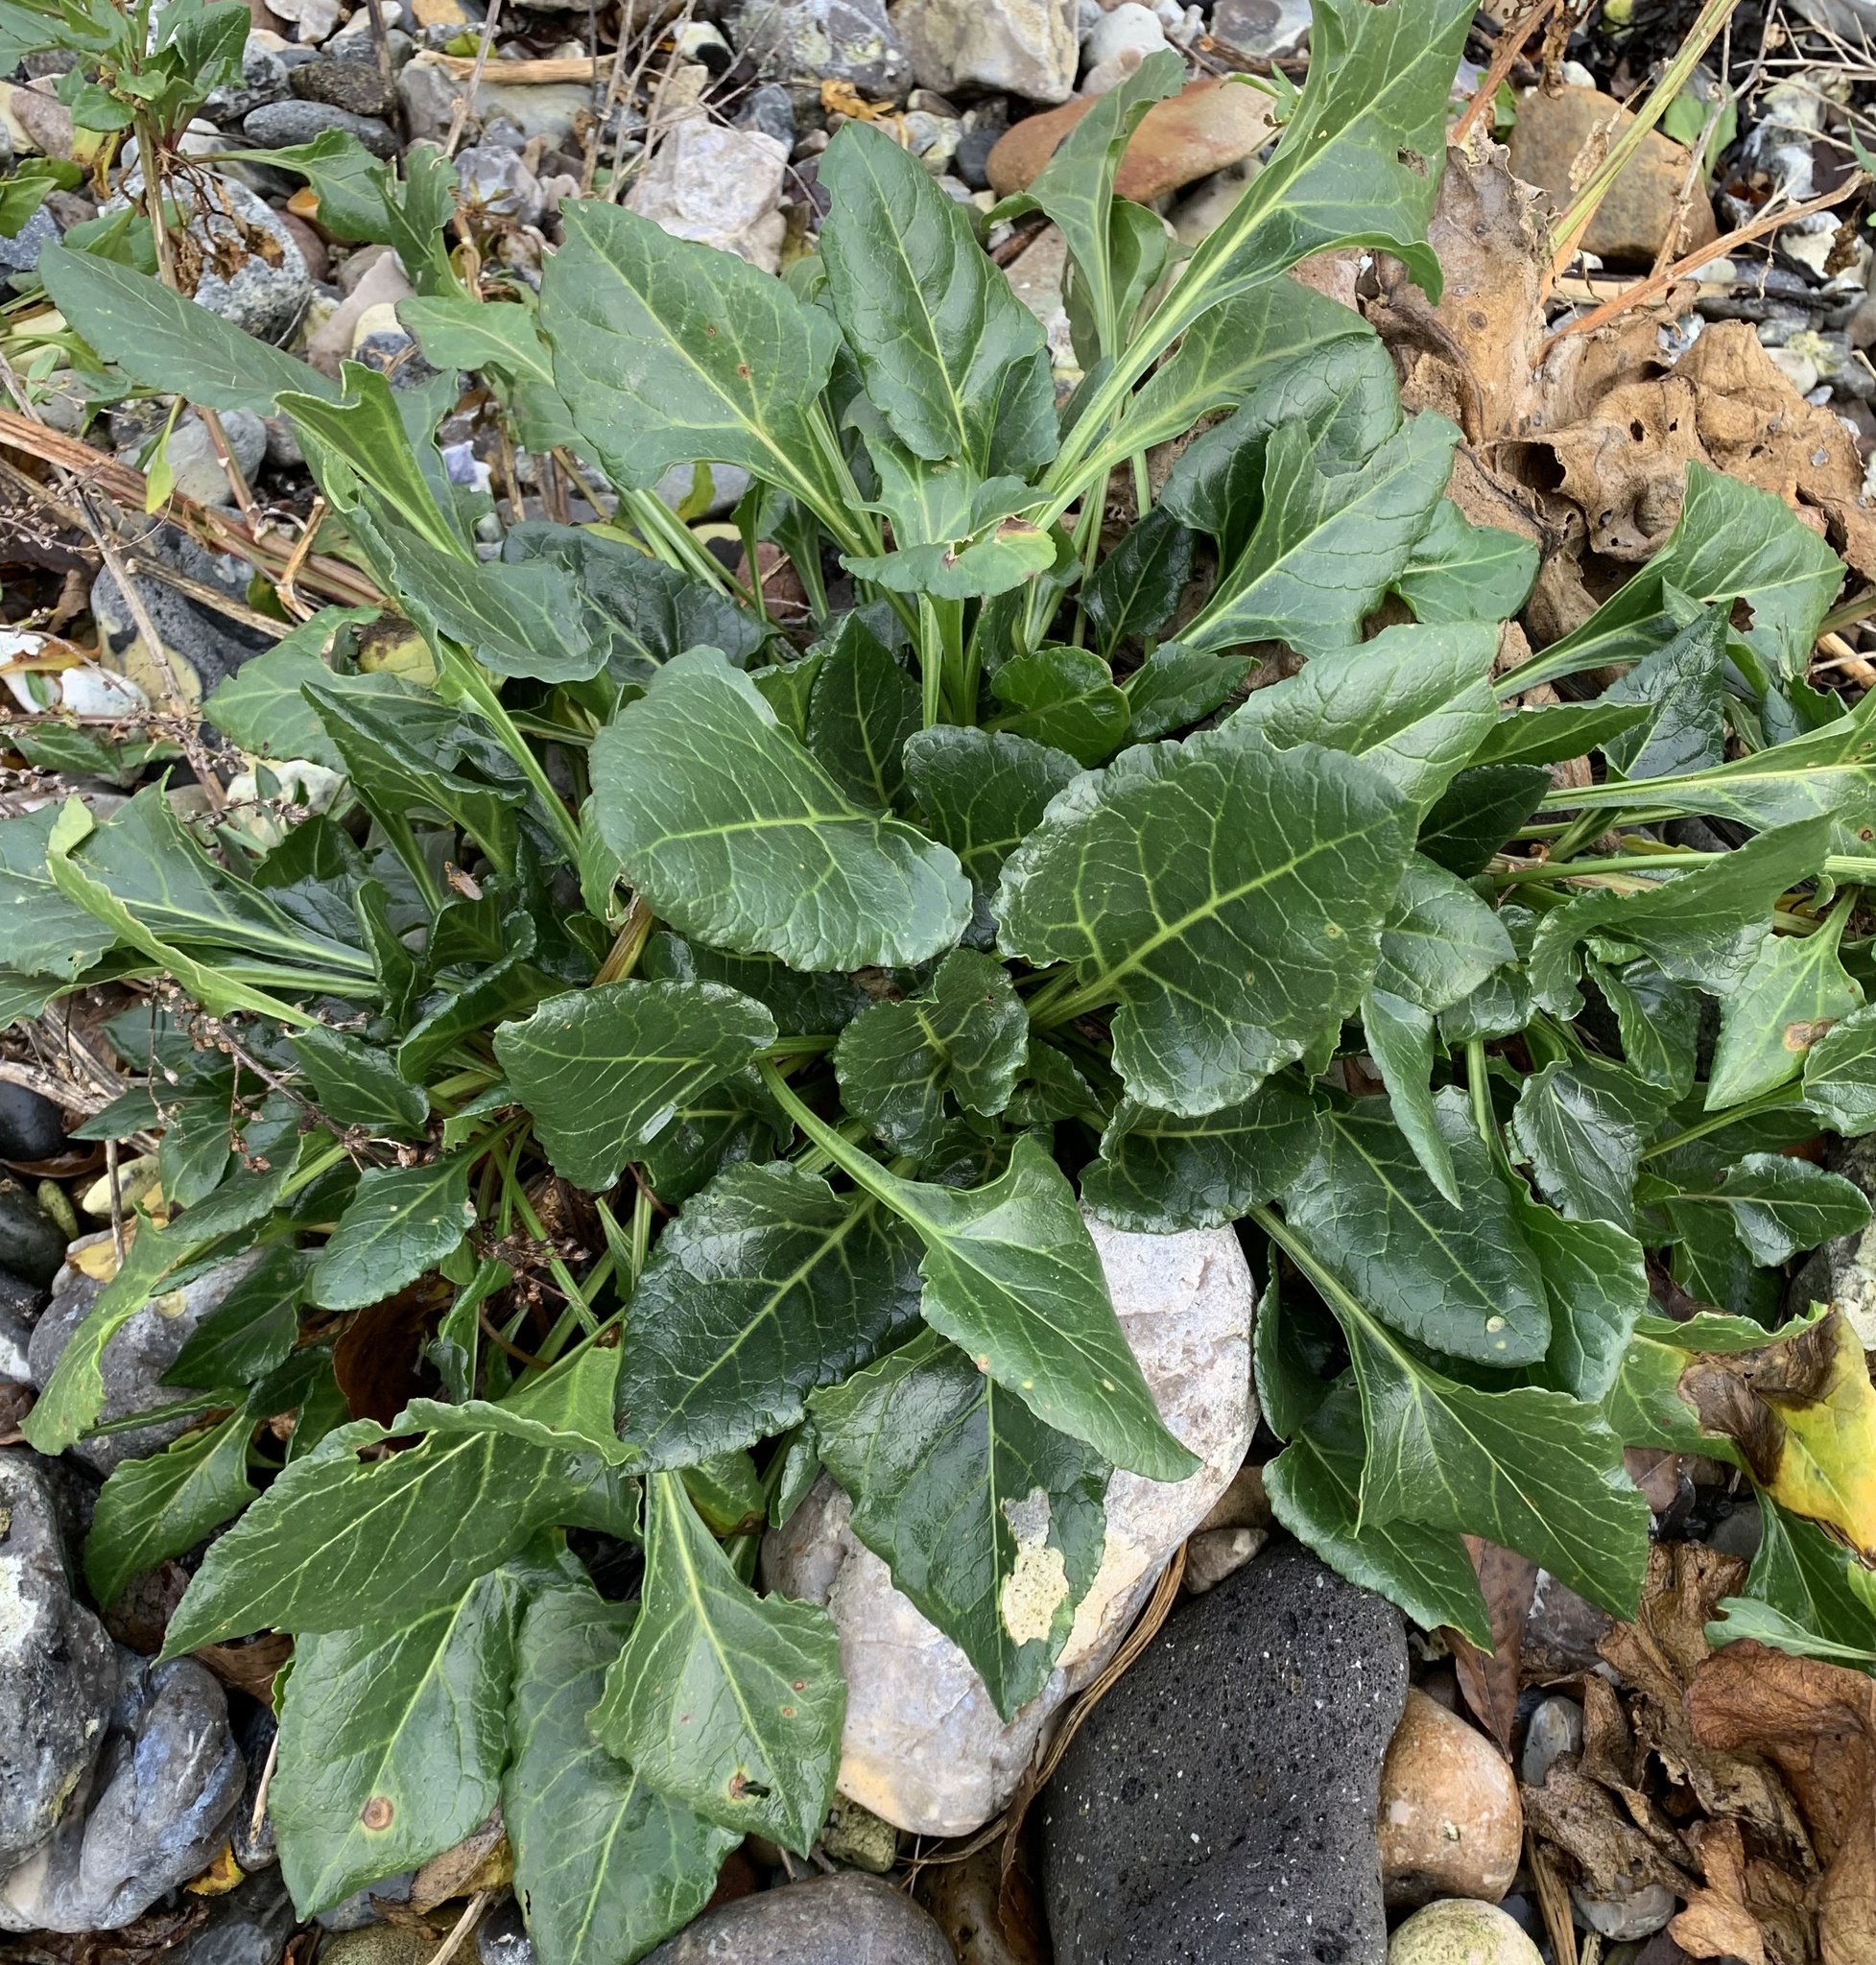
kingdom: Plantae
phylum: Tracheophyta
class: Magnoliopsida
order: Caryophyllales
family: Amaranthaceae
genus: Beta
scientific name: Beta vulgaris
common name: Beet
